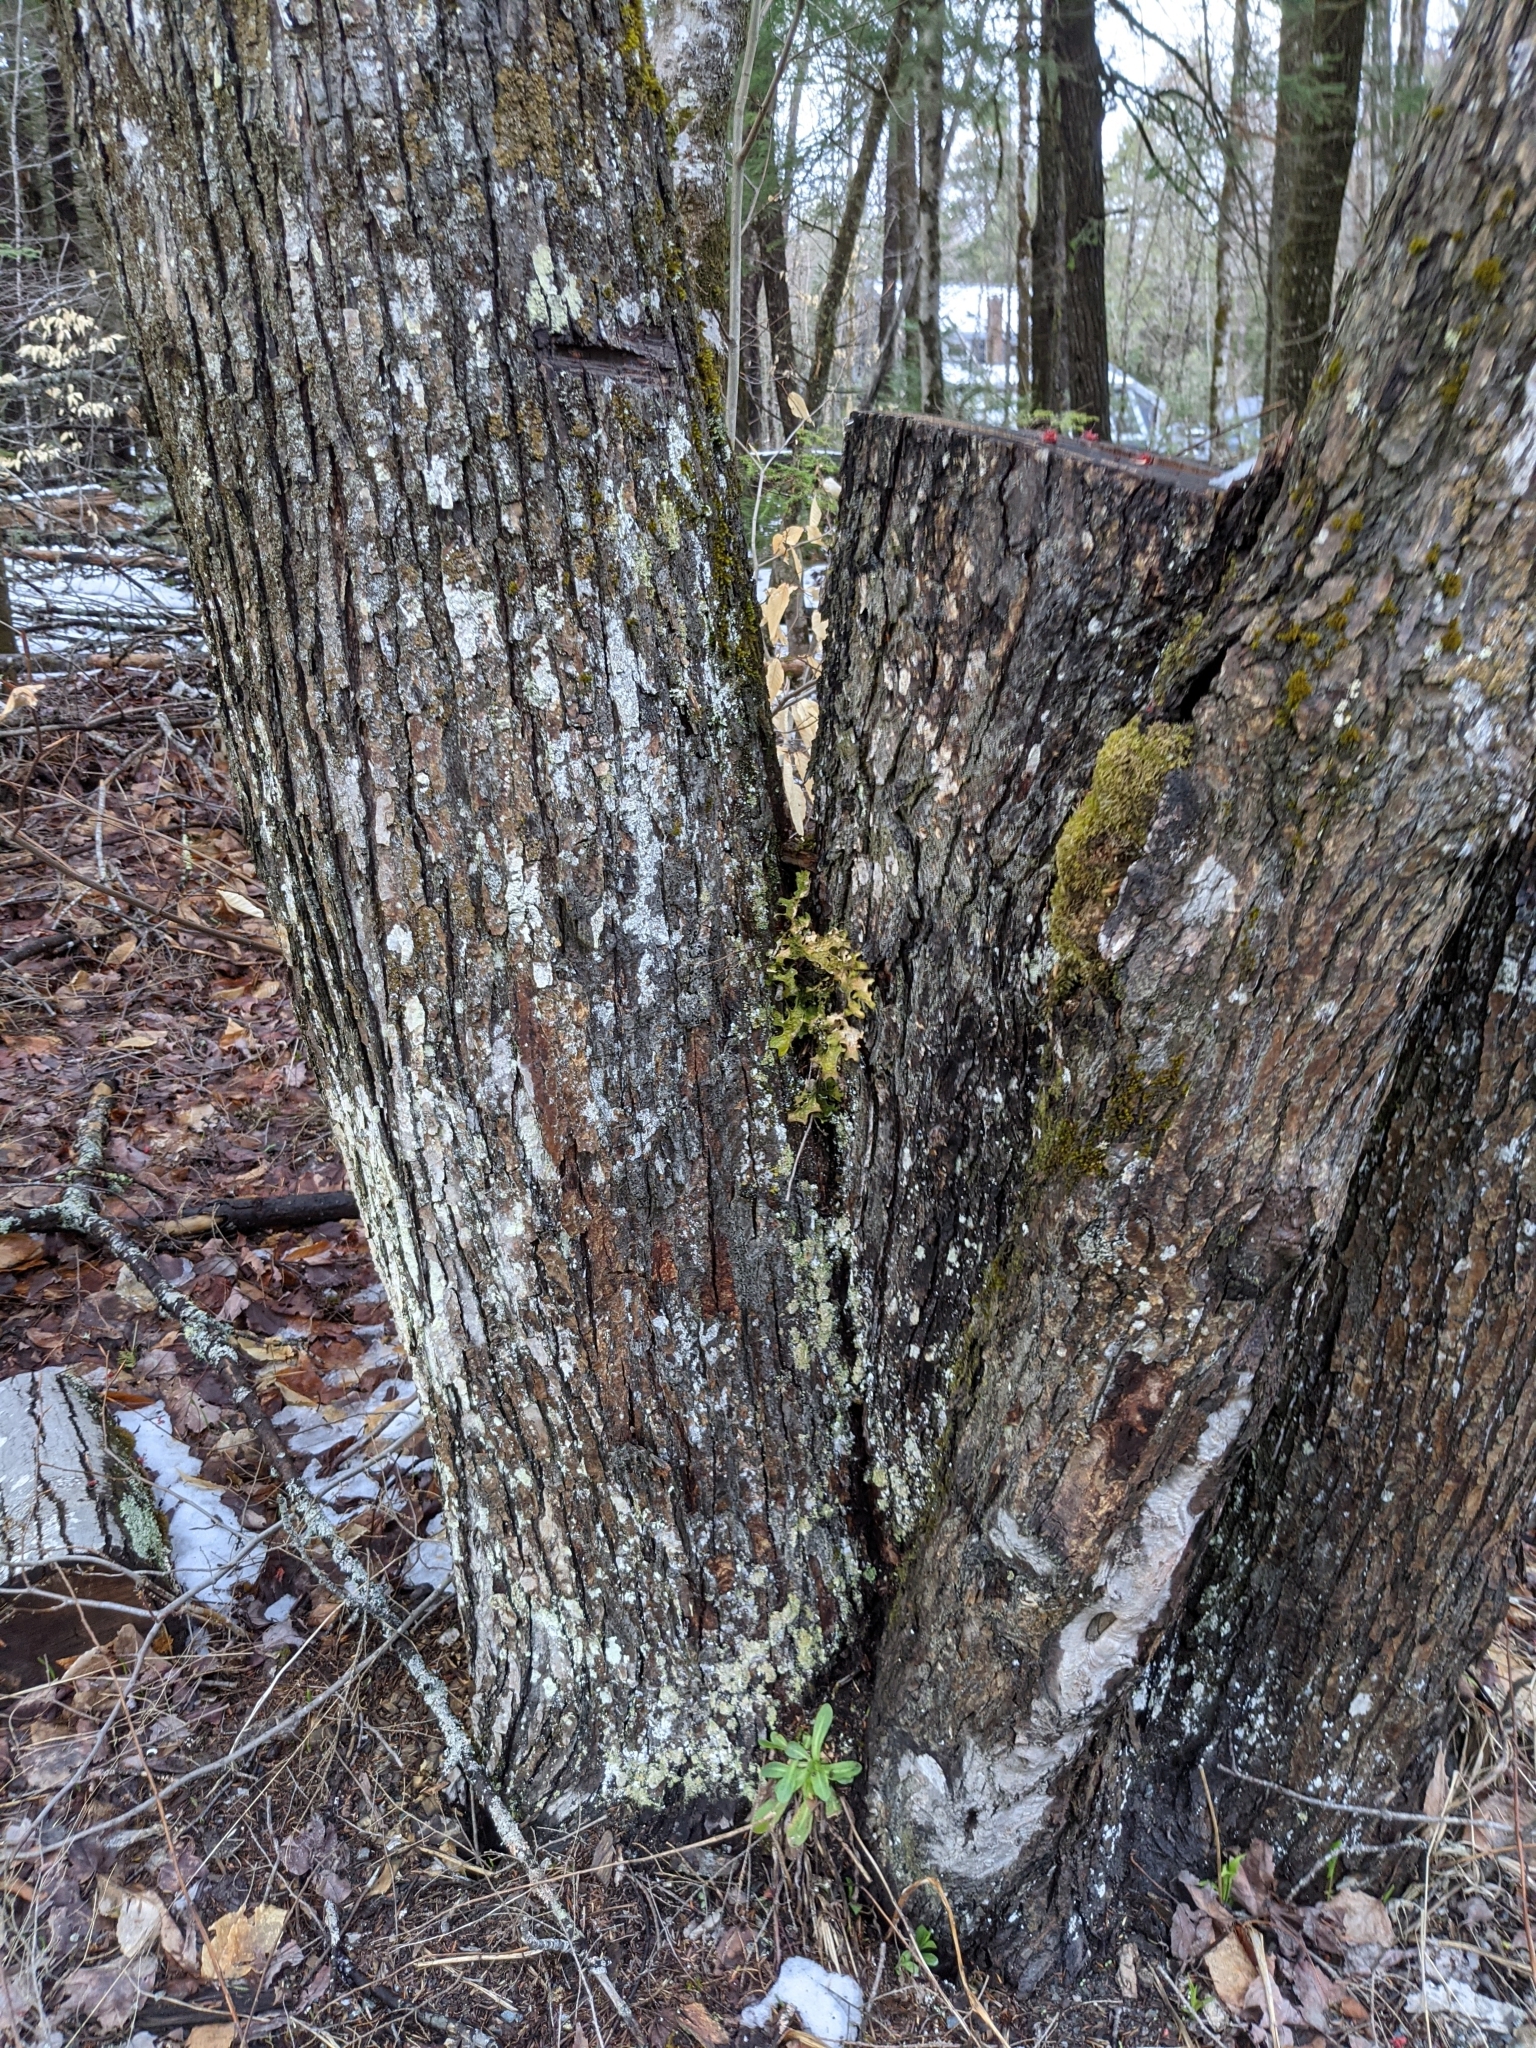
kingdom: Fungi
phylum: Ascomycota
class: Lecanoromycetes
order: Peltigerales
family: Lobariaceae
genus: Lobaria
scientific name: Lobaria pulmonaria
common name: Lungwort
